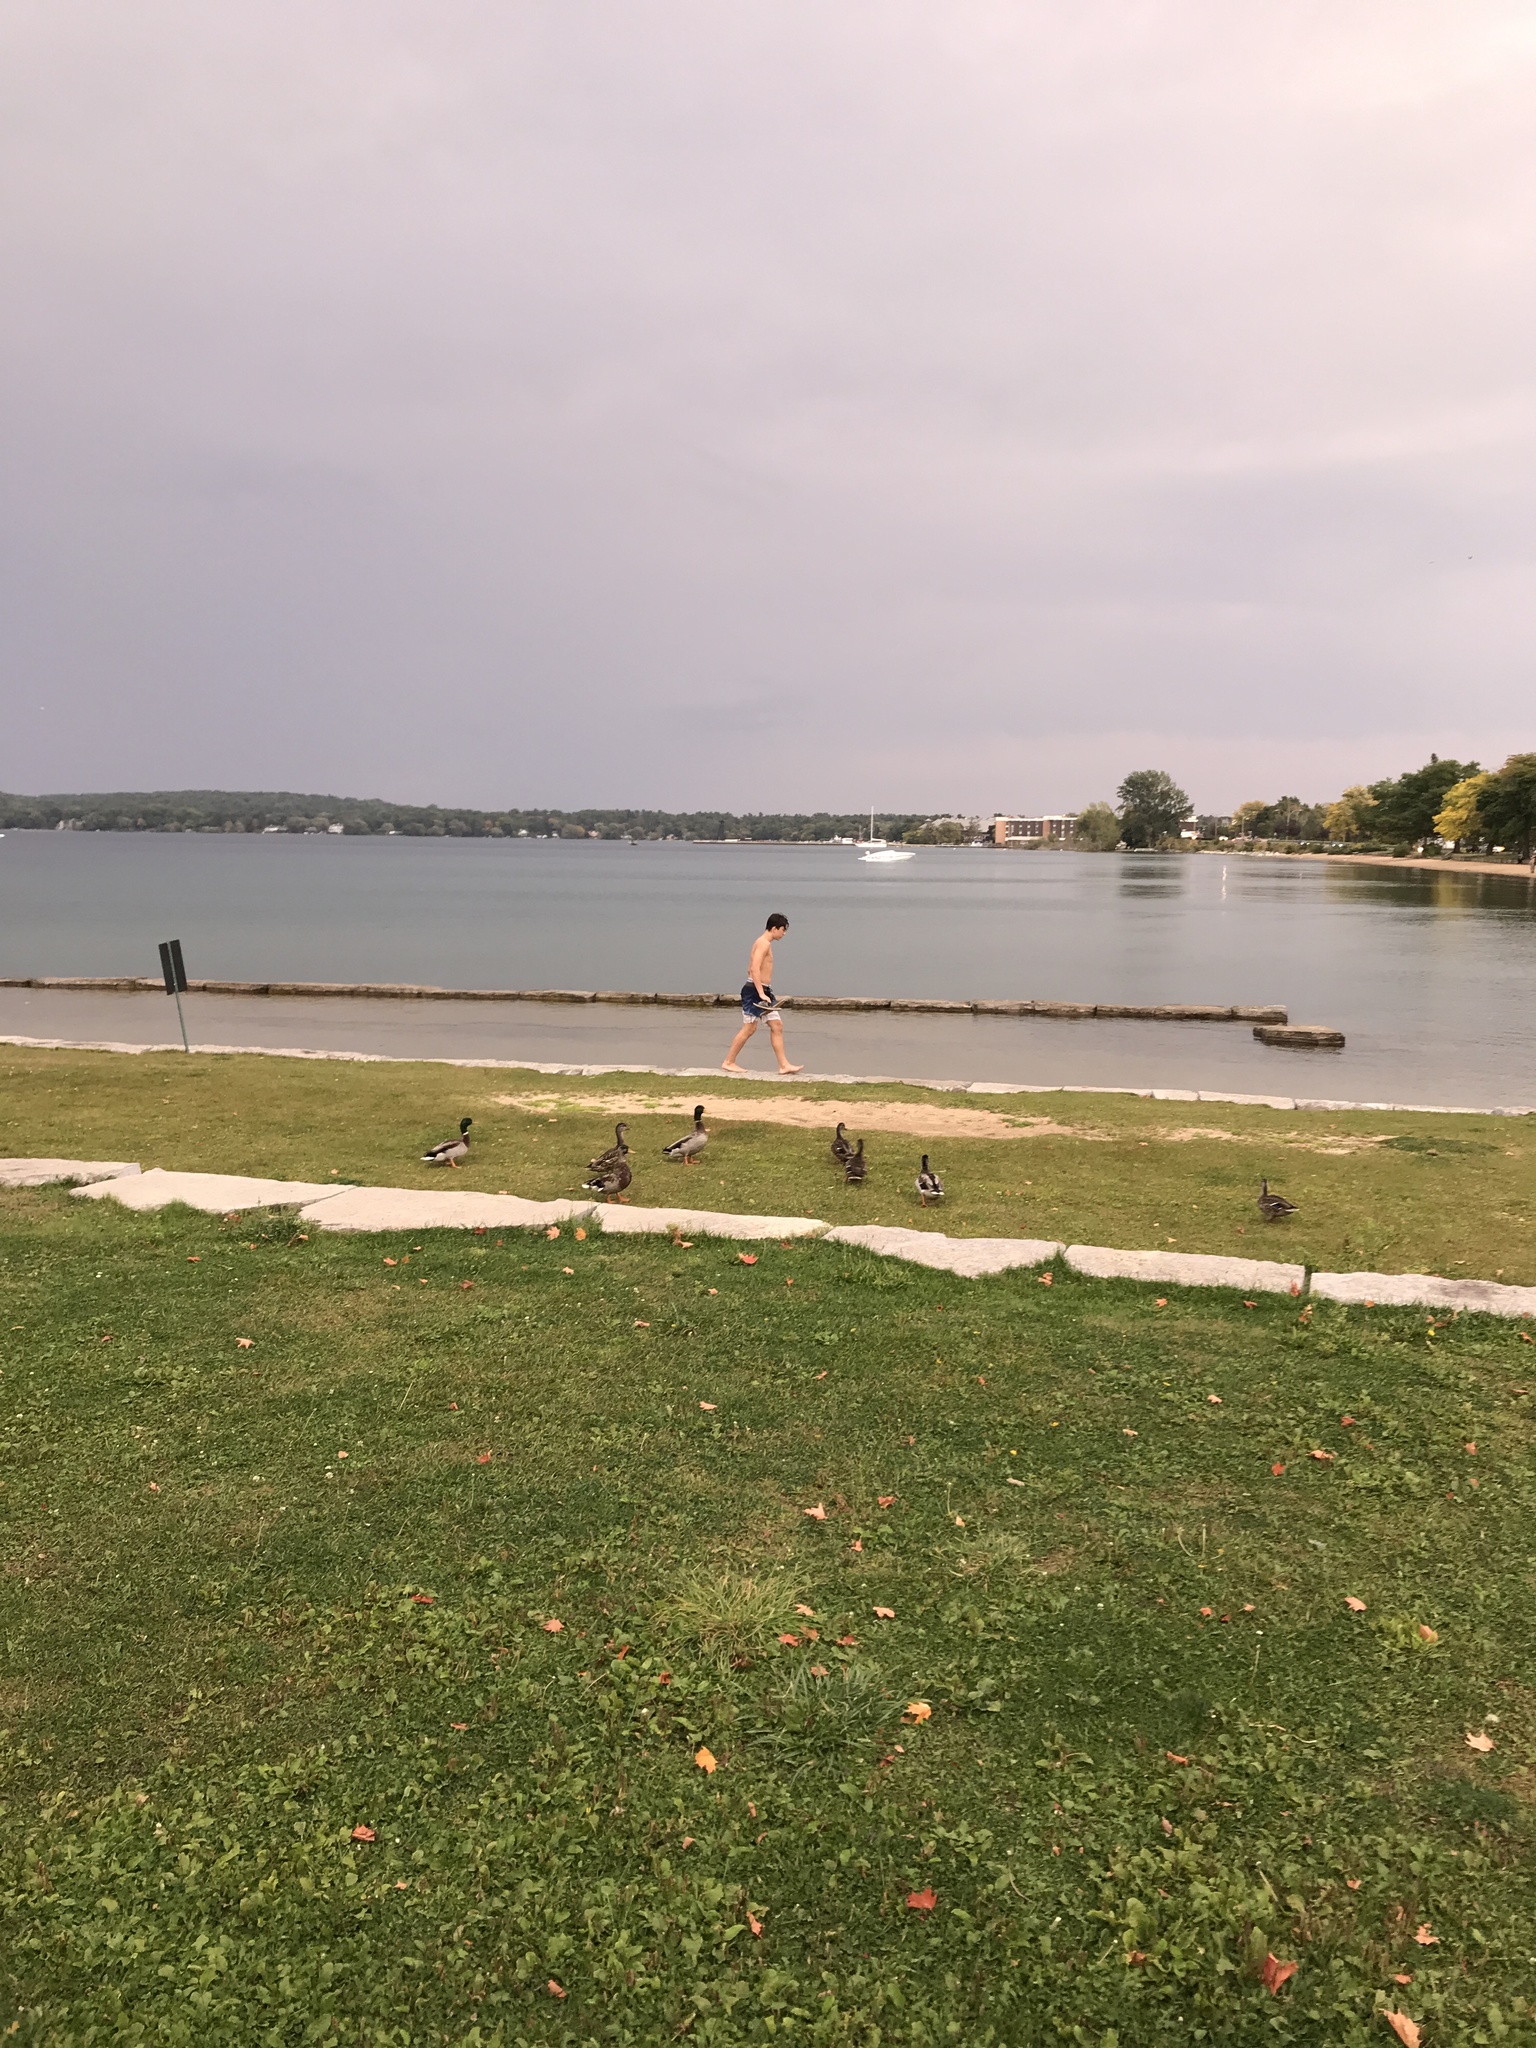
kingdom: Animalia
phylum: Chordata
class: Aves
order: Anseriformes
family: Anatidae
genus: Anas
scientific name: Anas platyrhynchos
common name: Mallard
